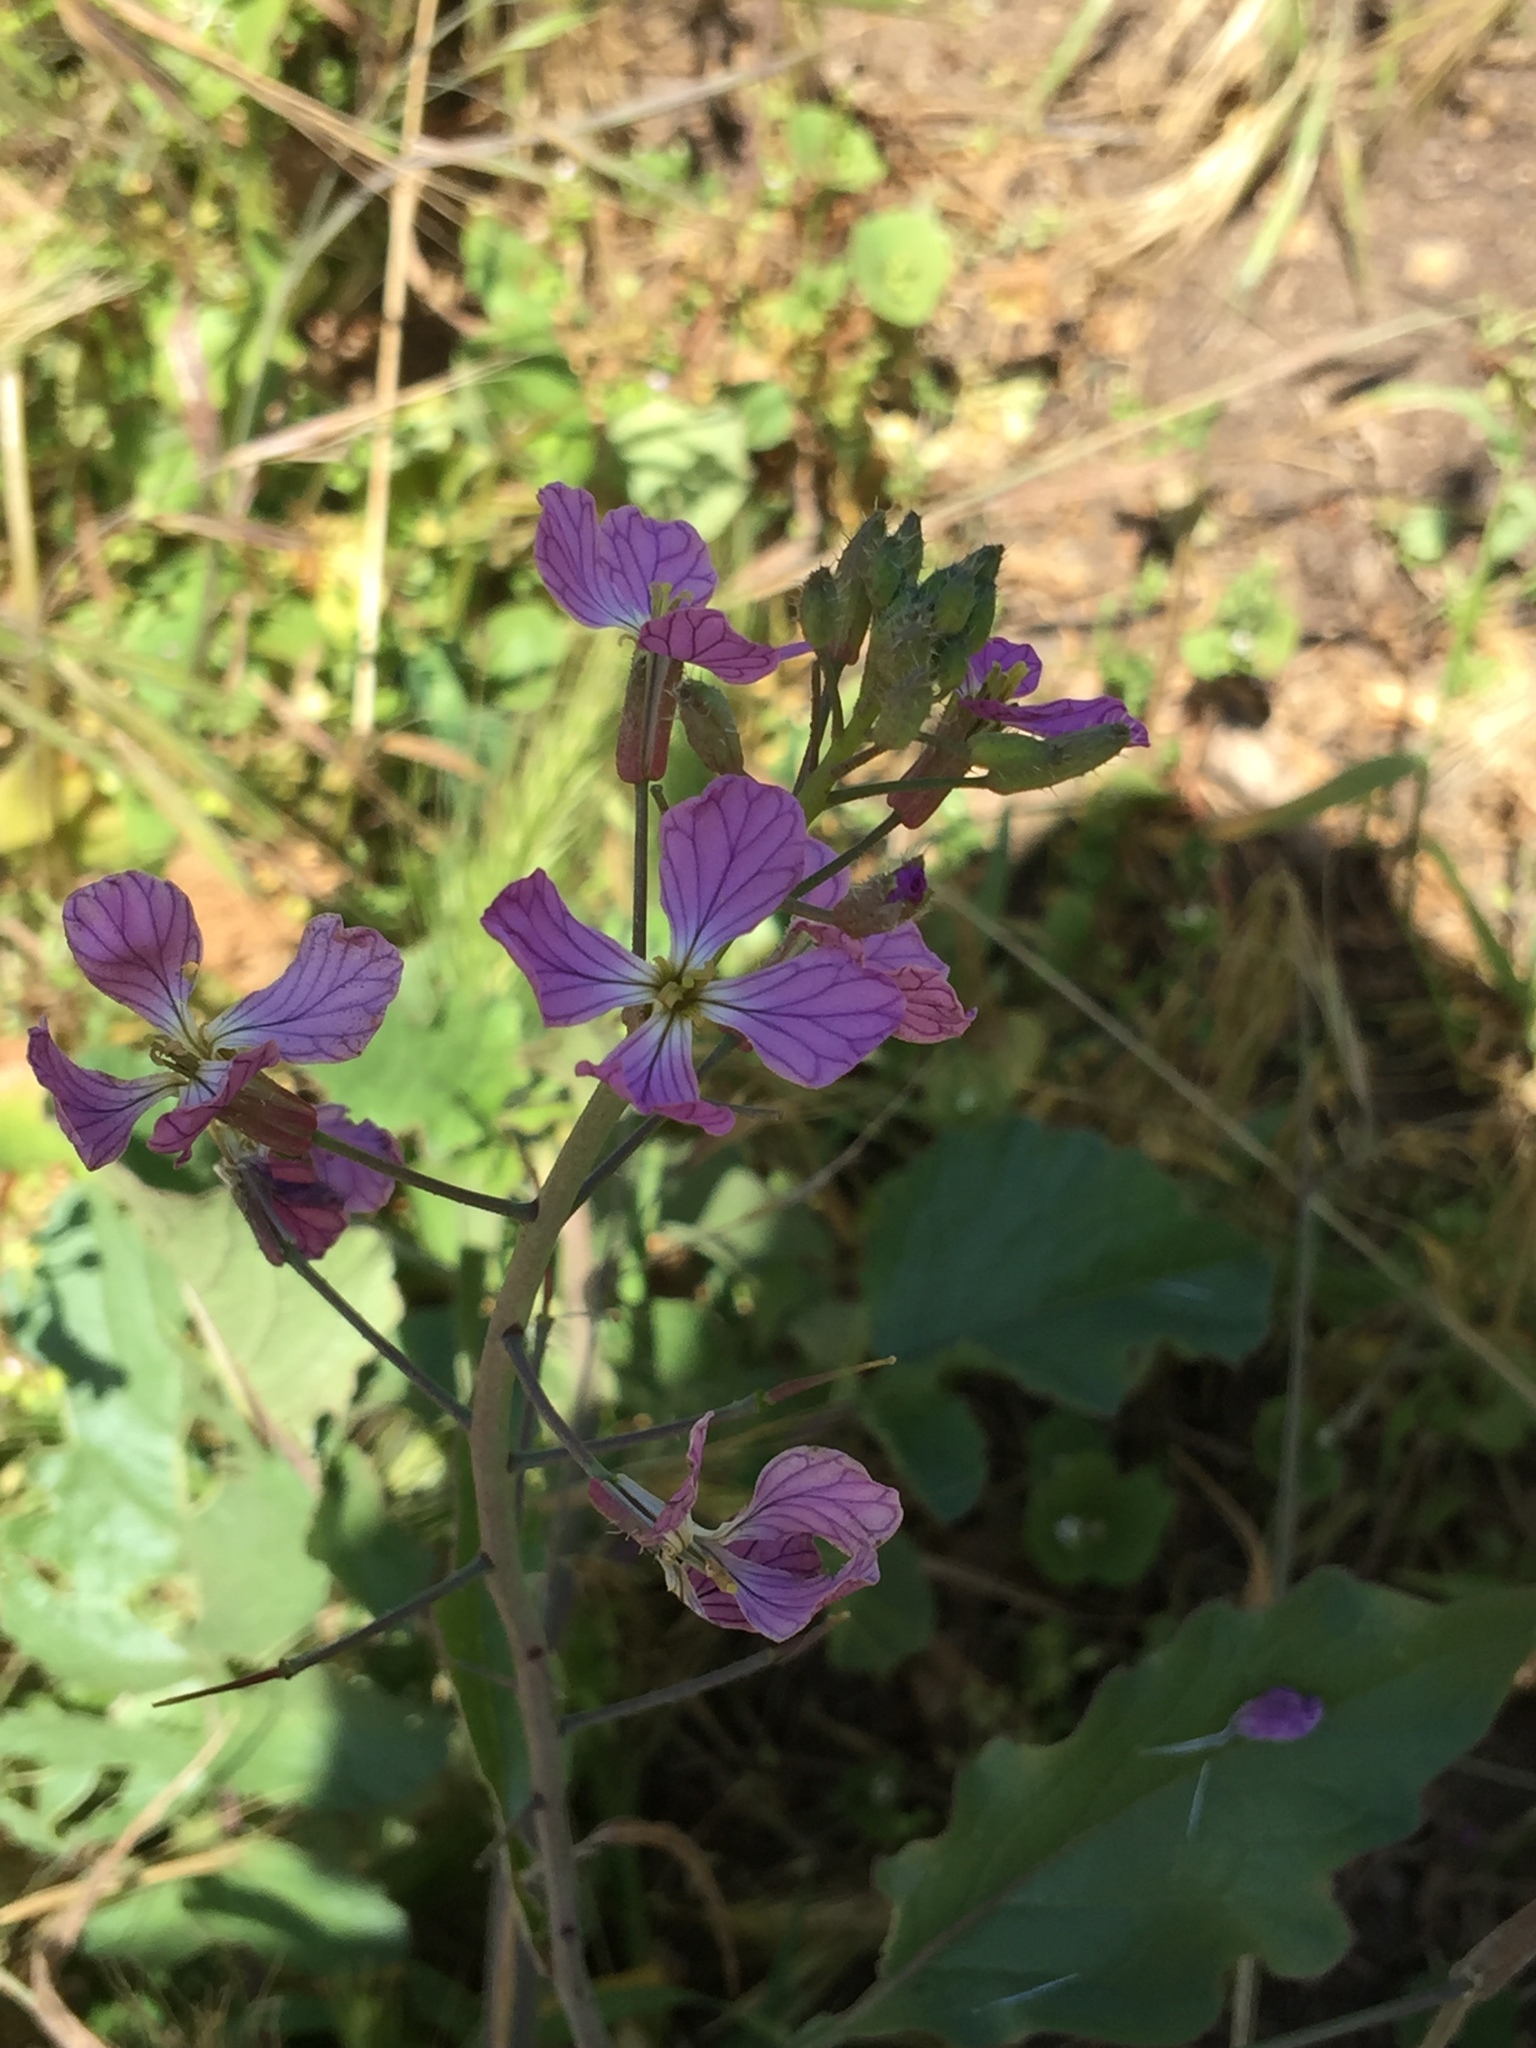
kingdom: Plantae
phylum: Tracheophyta
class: Magnoliopsida
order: Brassicales
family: Brassicaceae
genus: Raphanus
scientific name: Raphanus sativus
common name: Cultivated radish
